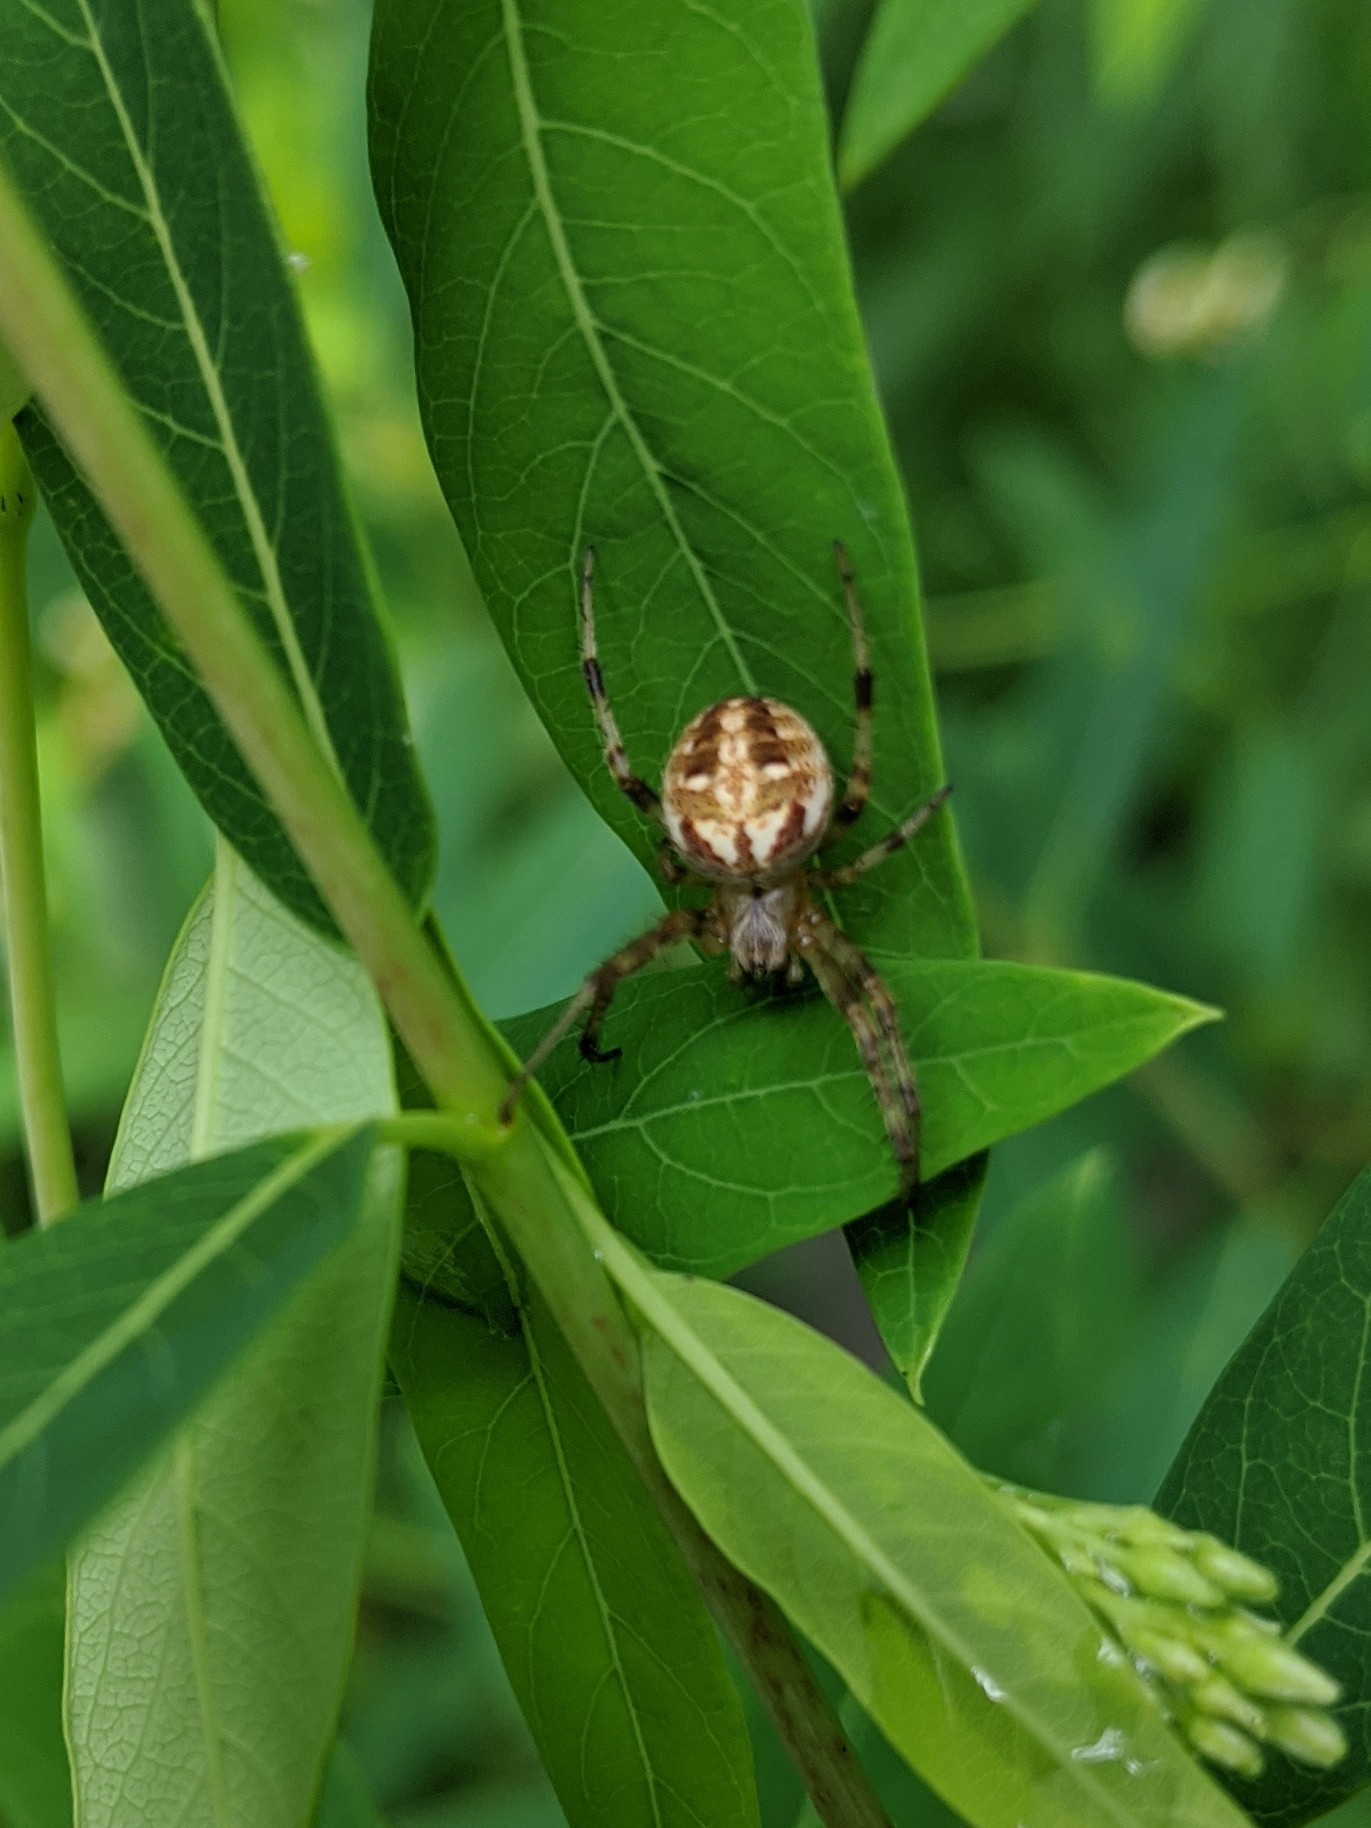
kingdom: Animalia
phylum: Arthropoda
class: Arachnida
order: Araneae
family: Araneidae
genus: Neoscona
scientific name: Neoscona arabesca
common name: Orb weavers
